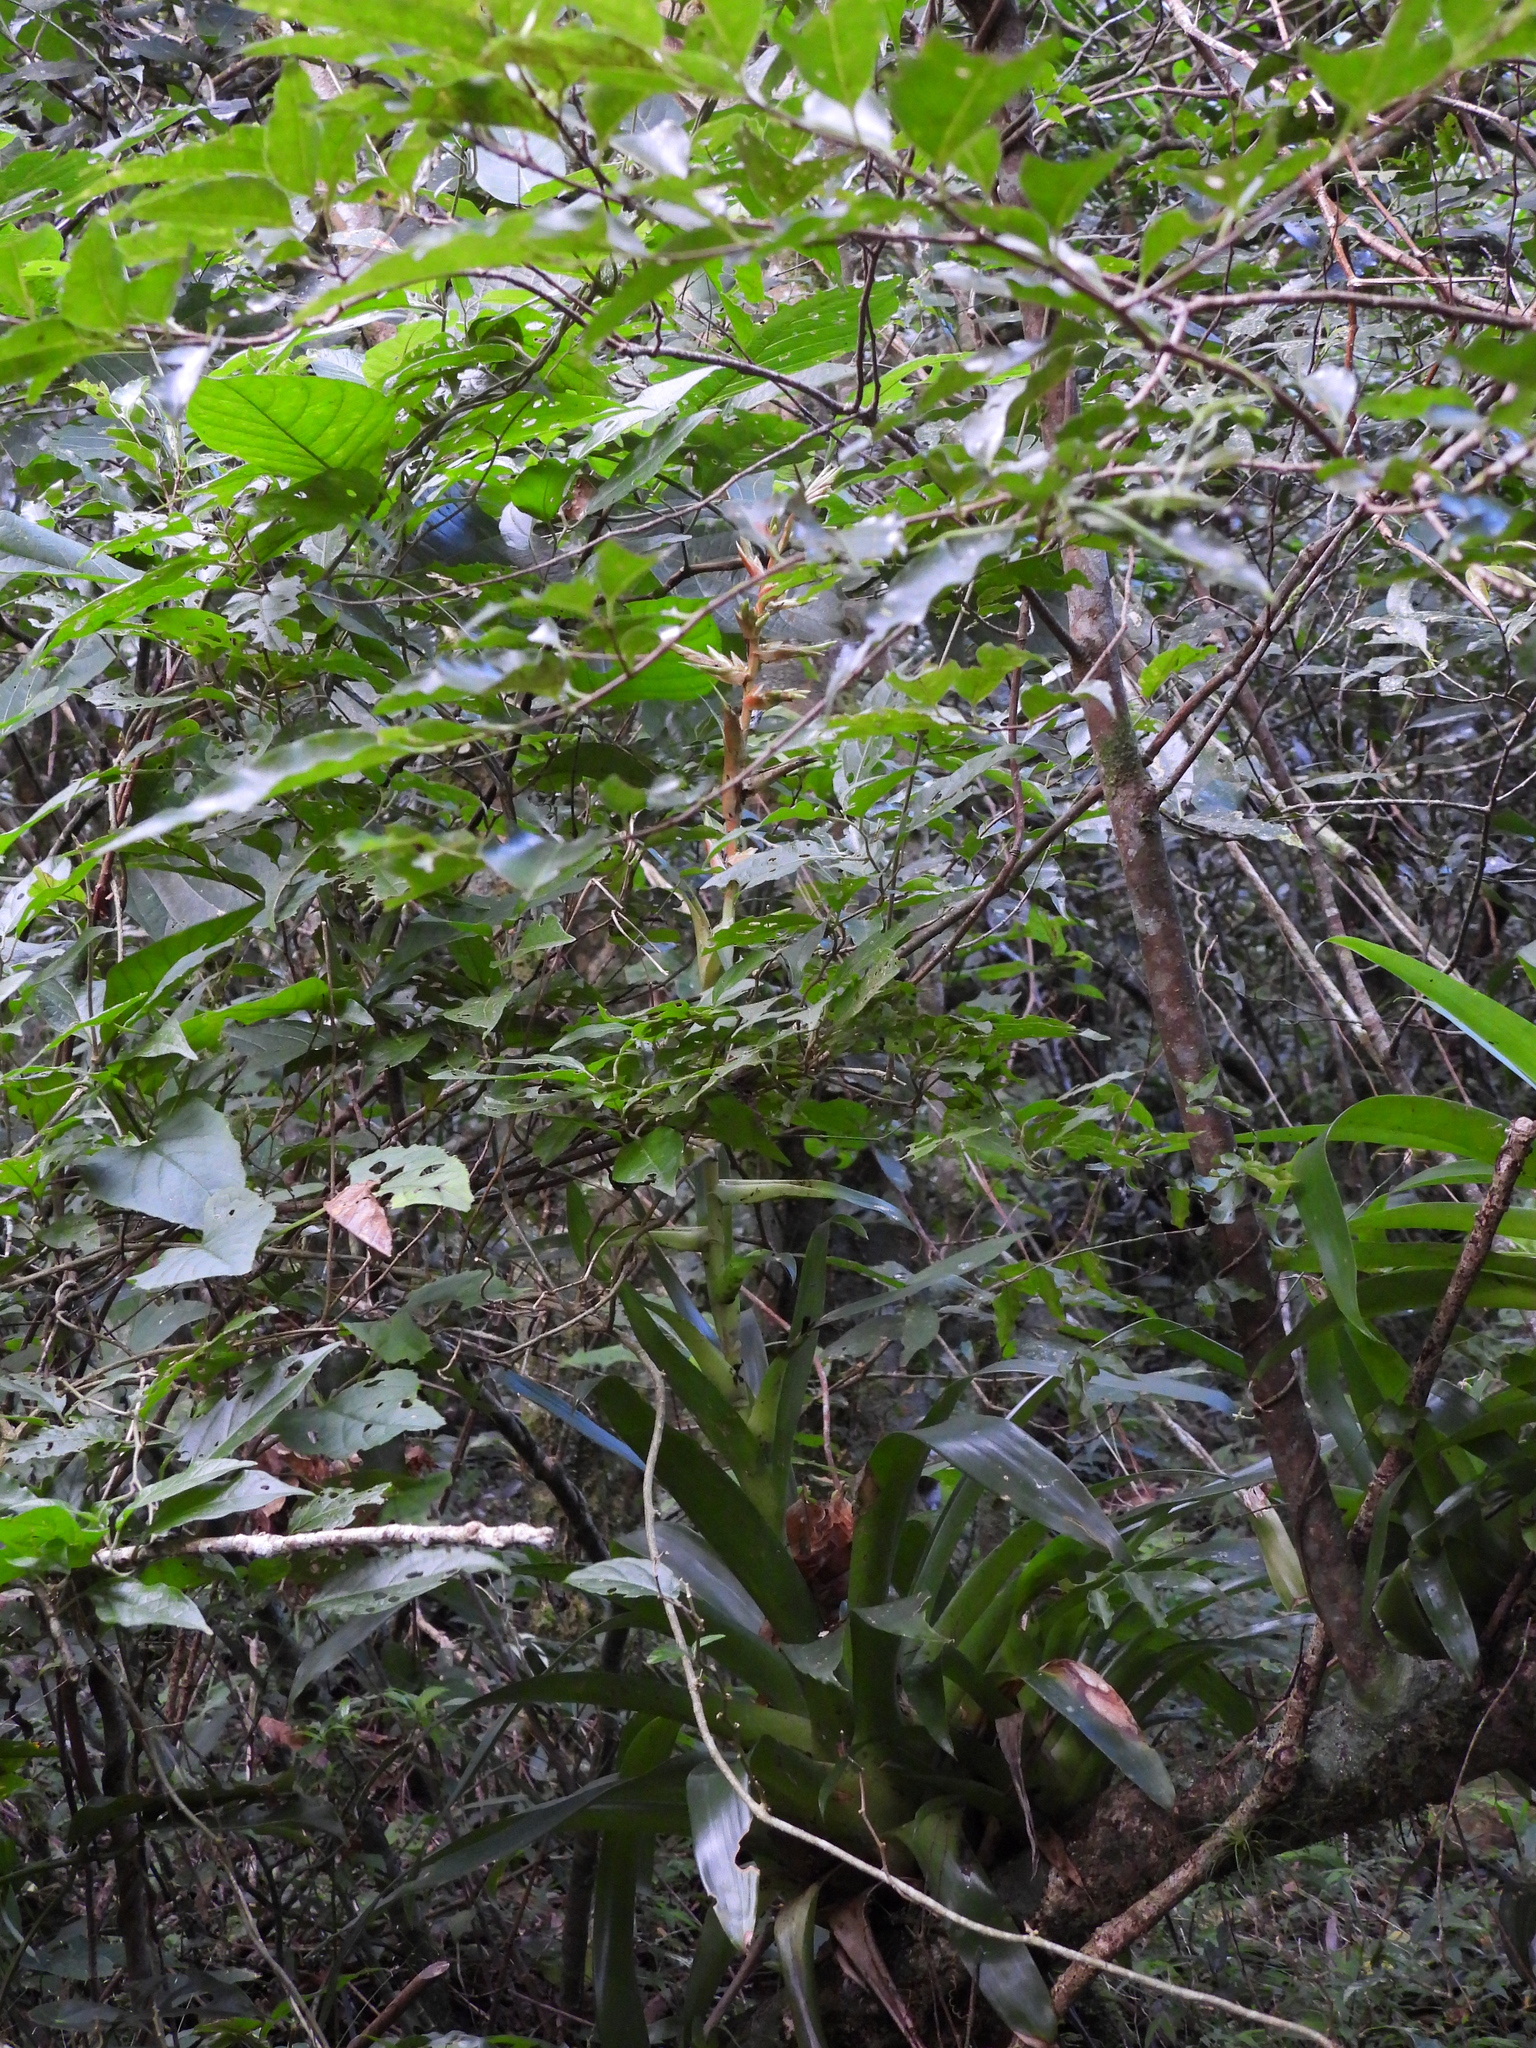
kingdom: Plantae
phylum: Tracheophyta
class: Liliopsida
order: Poales
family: Bromeliaceae
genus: Tillandsia
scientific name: Tillandsia guatemalensis
